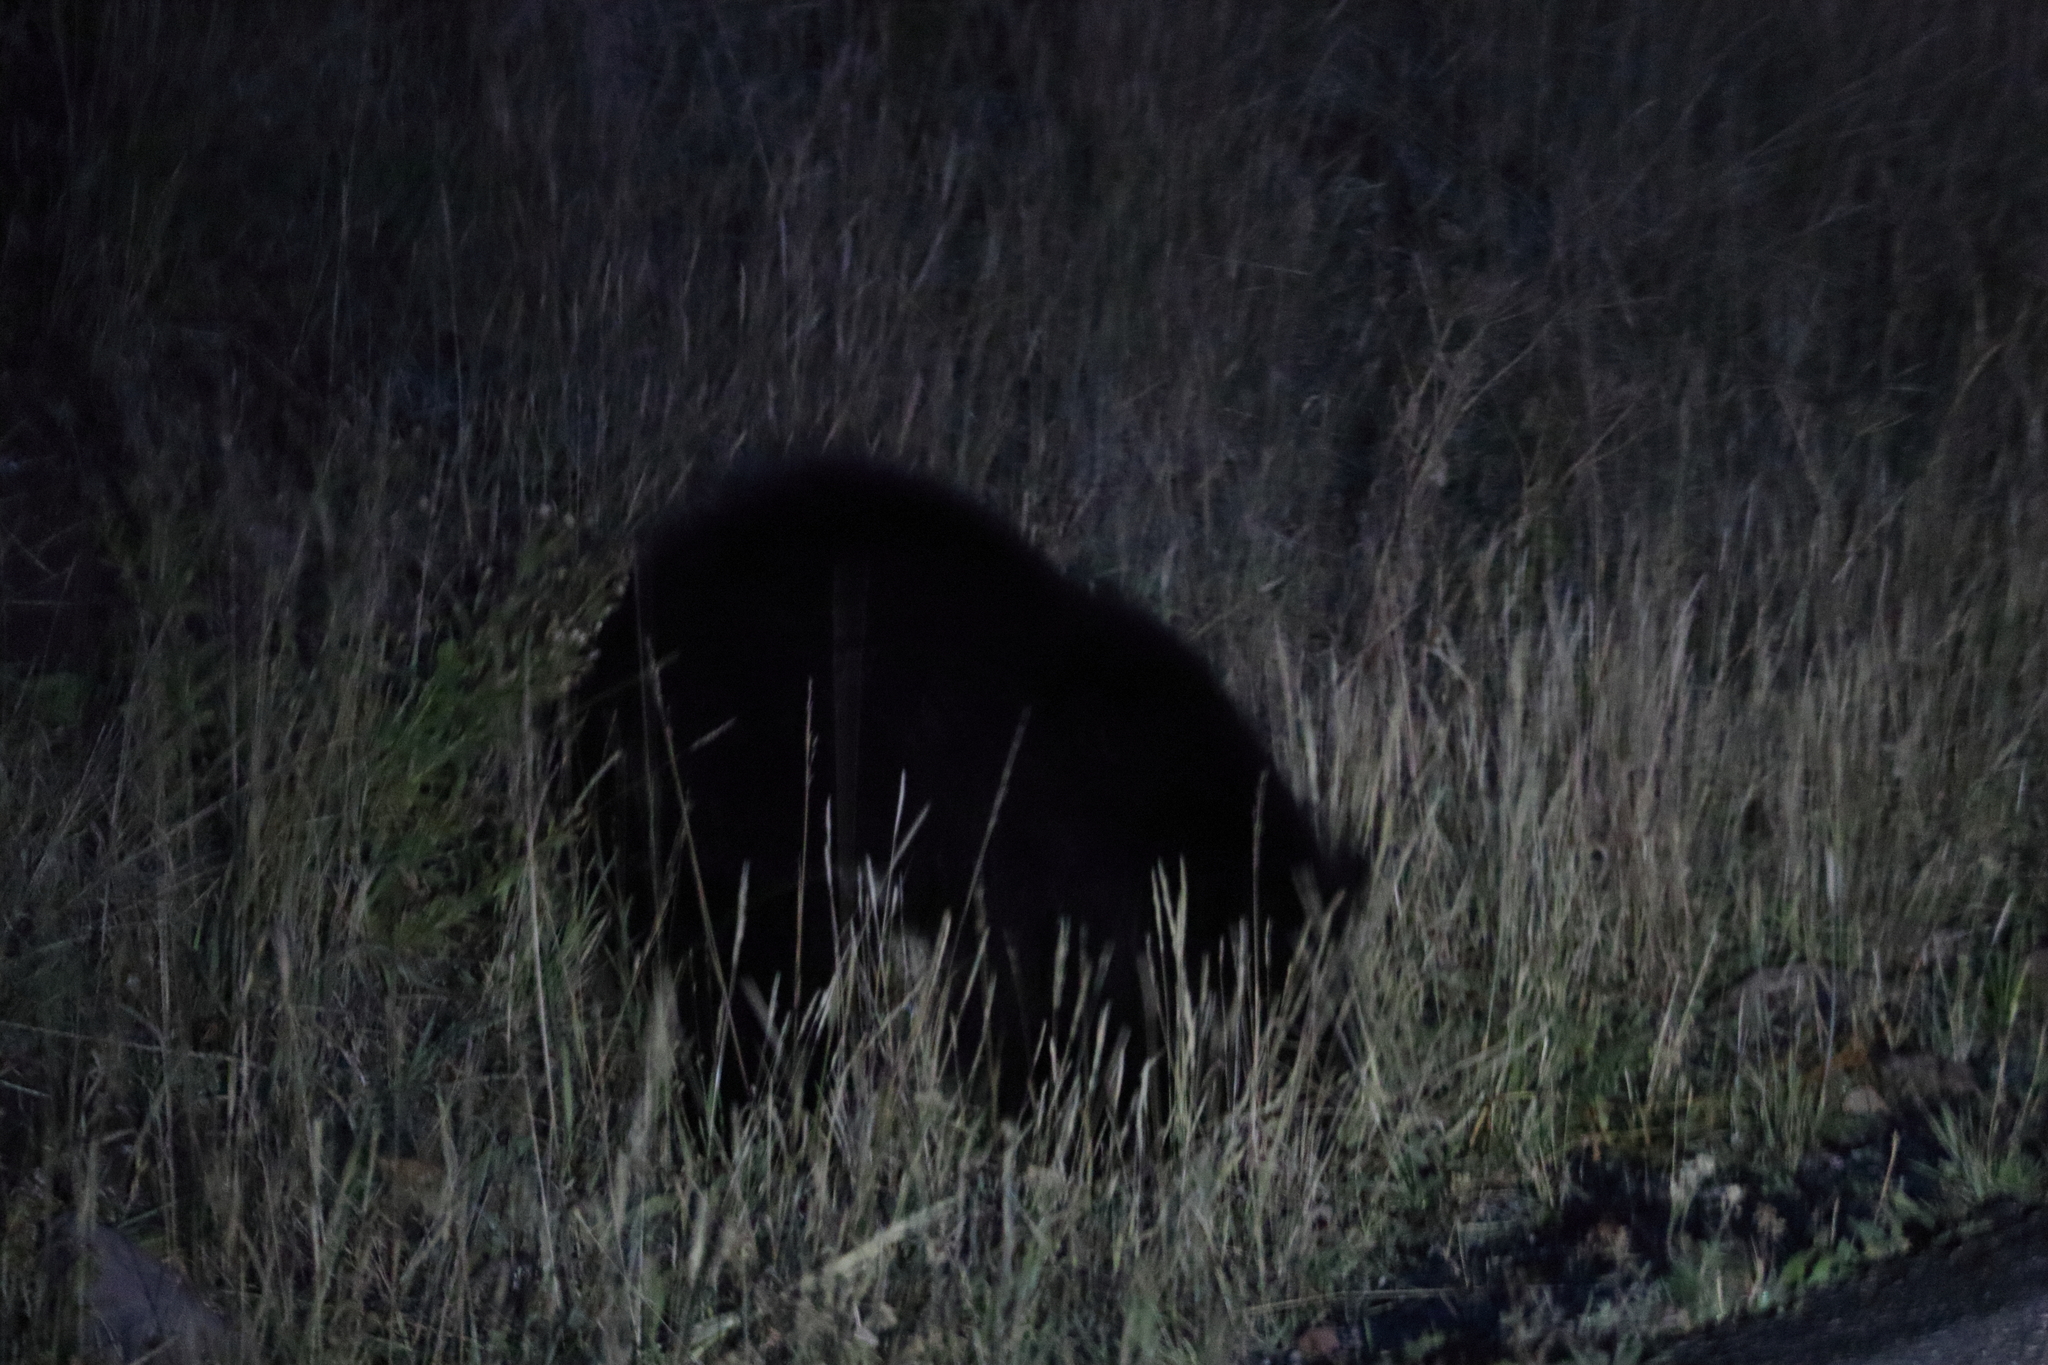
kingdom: Animalia
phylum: Chordata
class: Mammalia
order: Carnivora
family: Ursidae
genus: Ursus
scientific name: Ursus americanus
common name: American black bear
